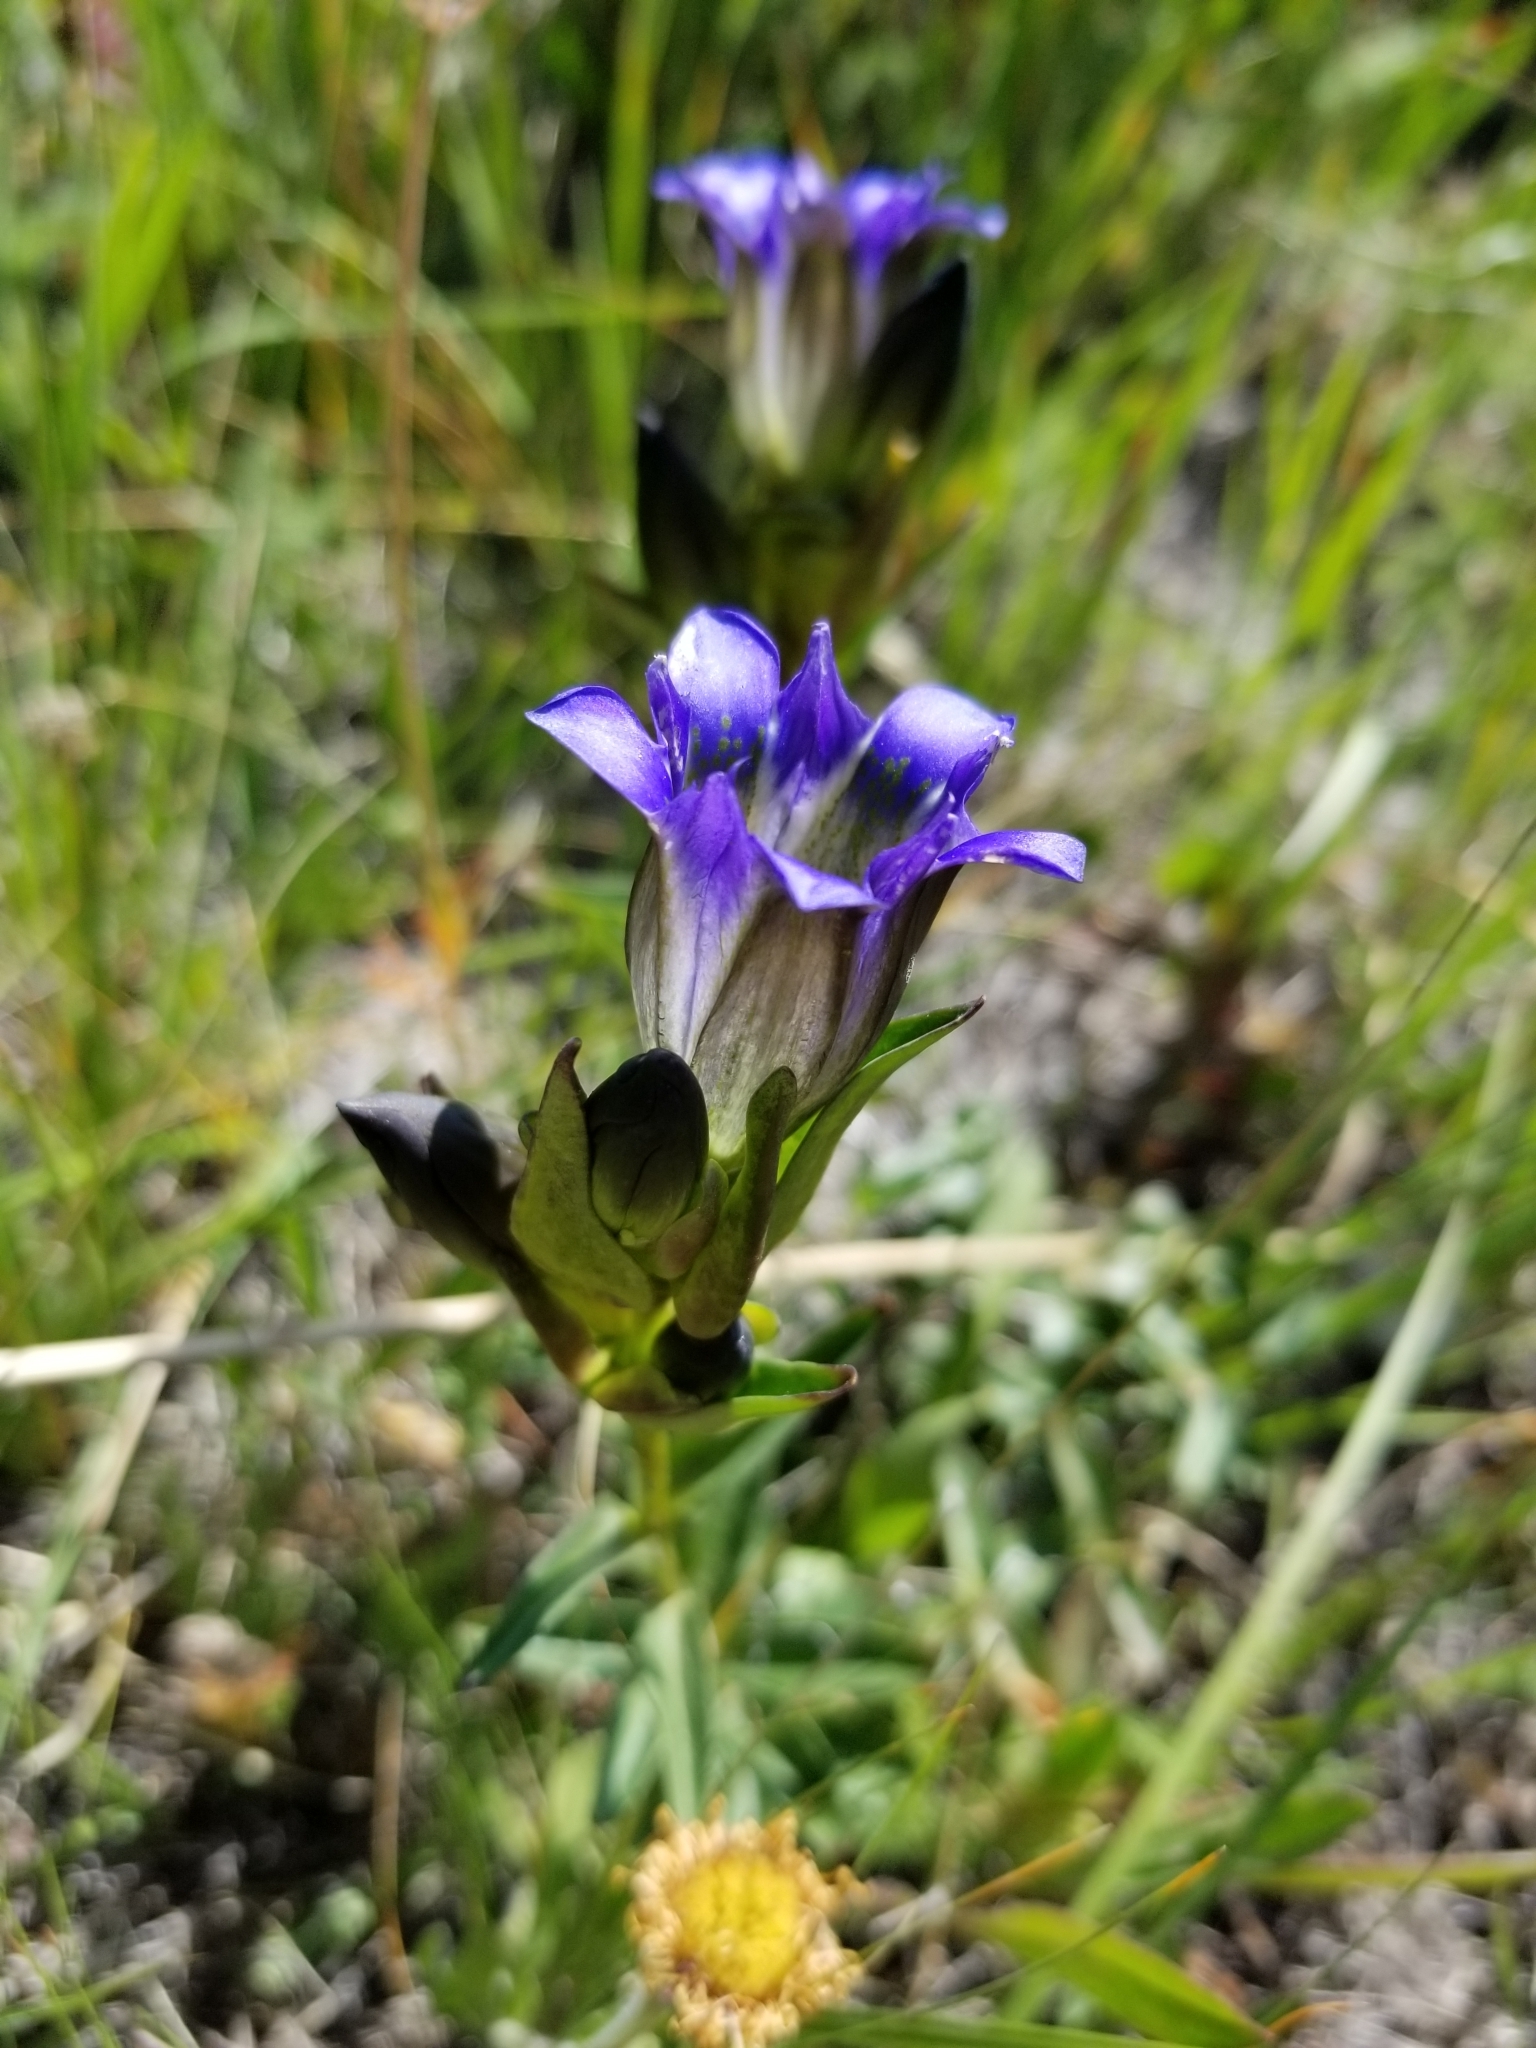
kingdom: Plantae
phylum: Tracheophyta
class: Magnoliopsida
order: Gentianales
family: Gentianaceae
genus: Gentiana
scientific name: Gentiana parryi
